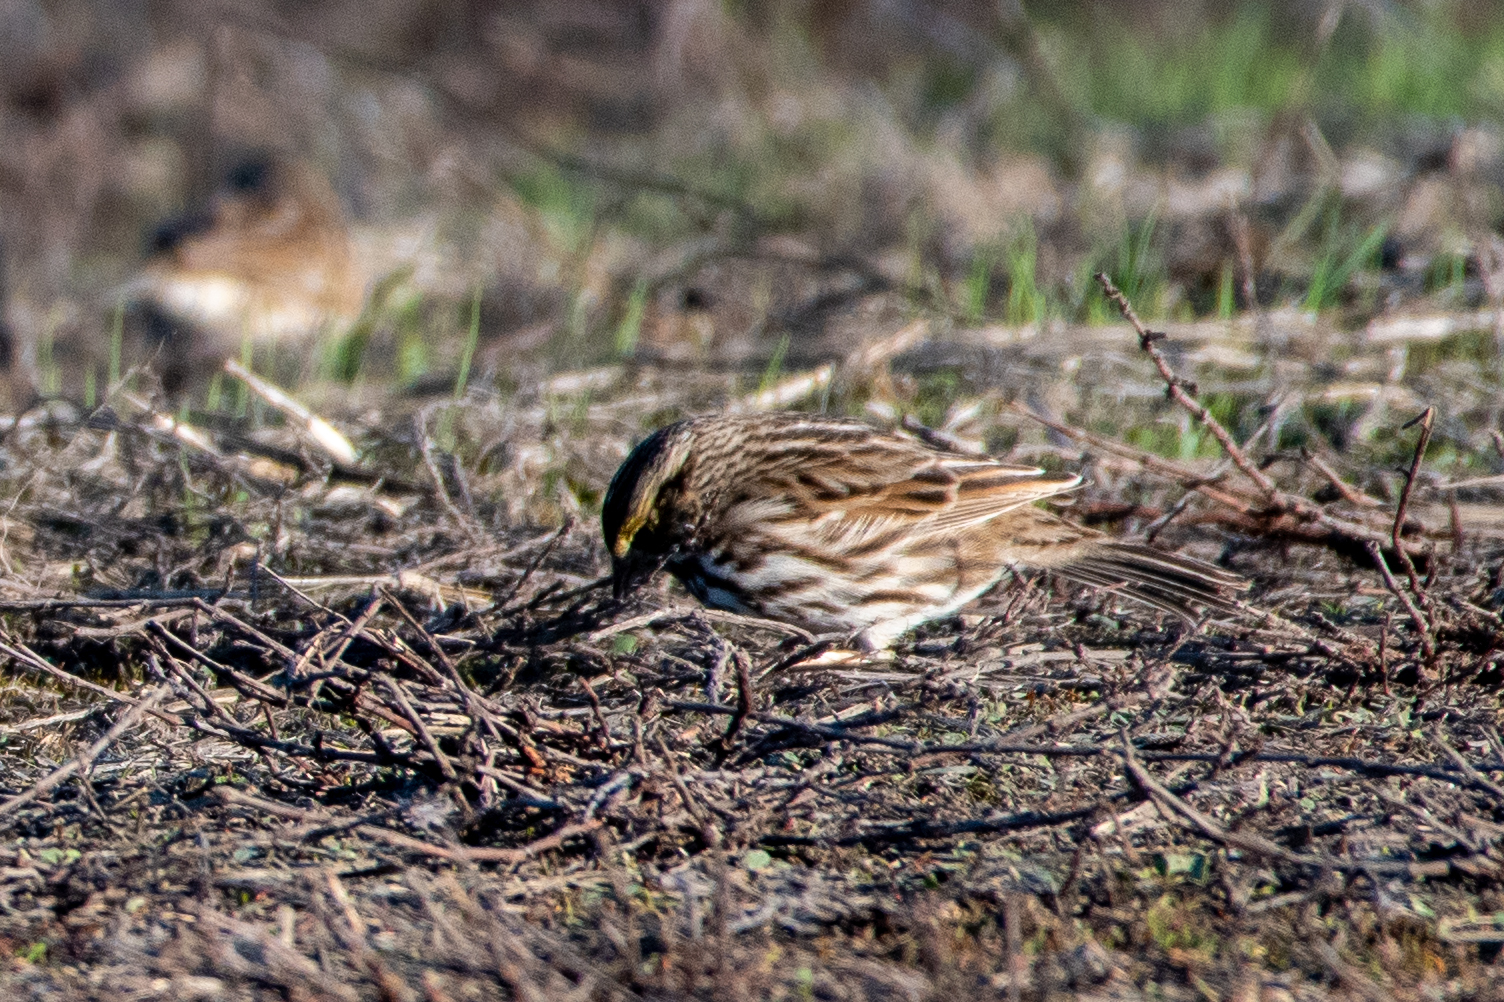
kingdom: Animalia
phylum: Chordata
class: Aves
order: Passeriformes
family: Passerellidae
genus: Passerculus
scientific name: Passerculus sandwichensis
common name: Savannah sparrow
